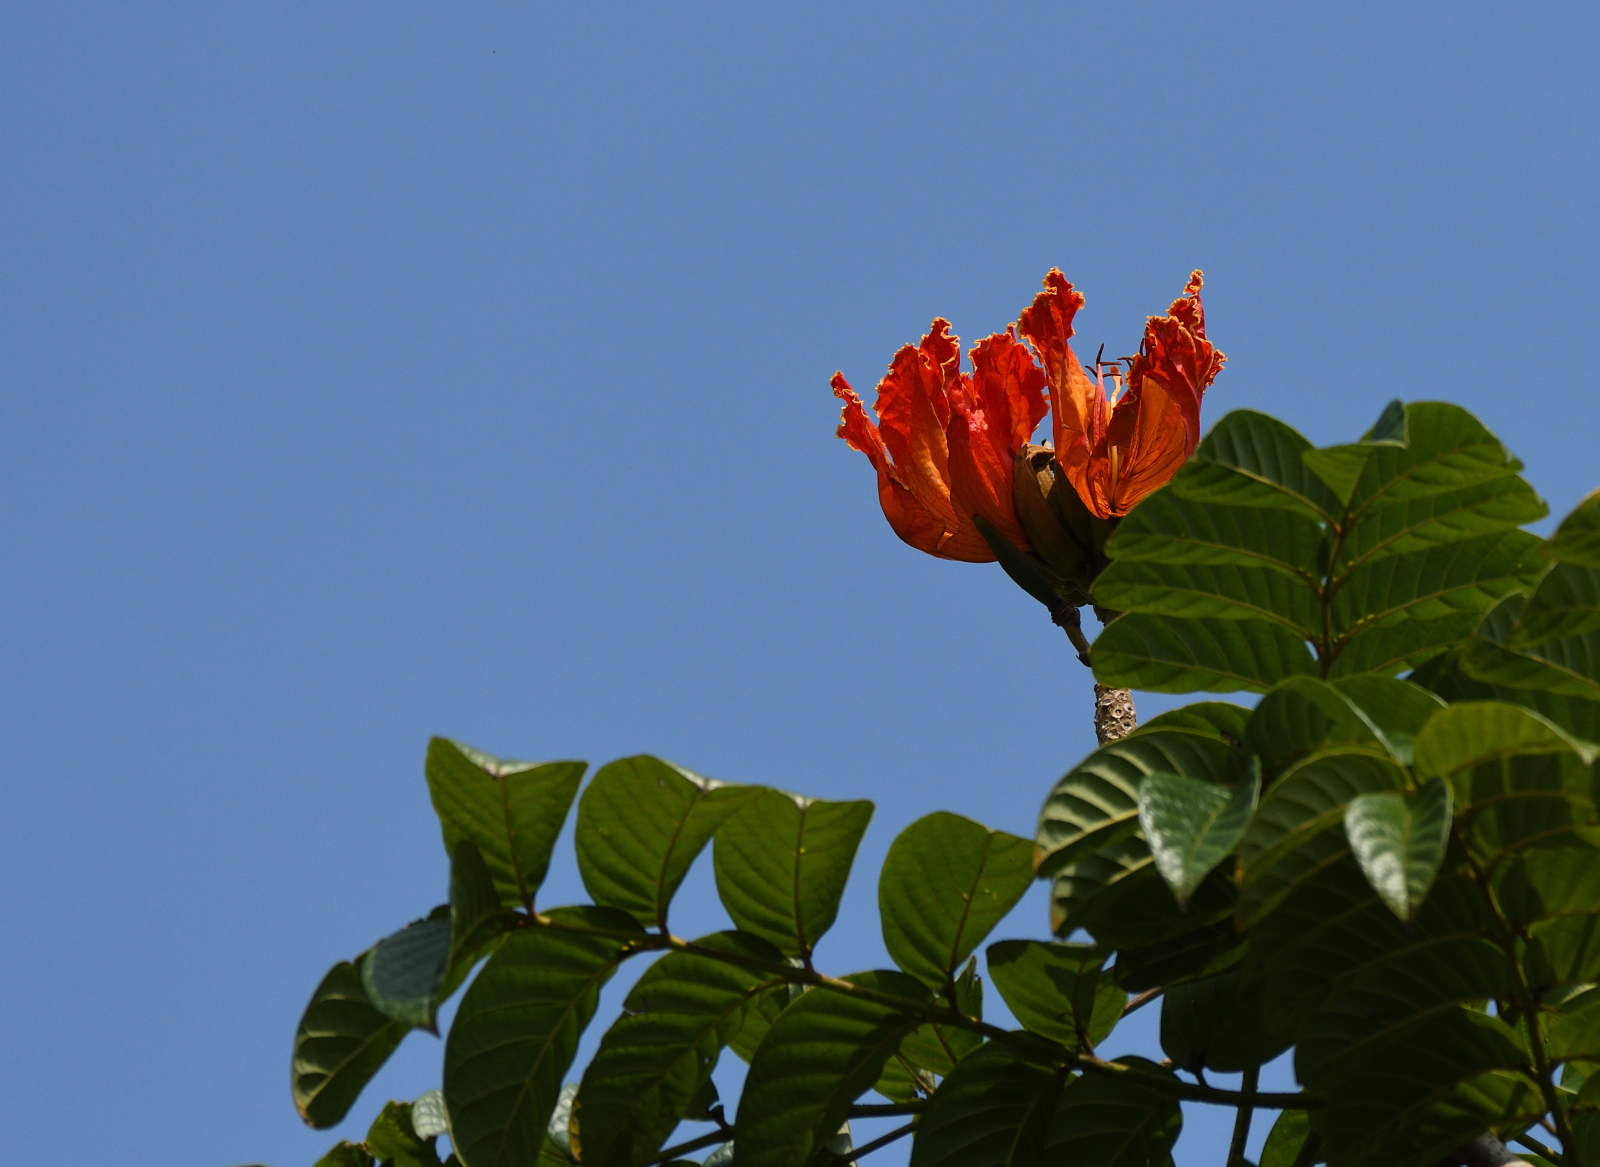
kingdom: Plantae
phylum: Tracheophyta
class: Magnoliopsida
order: Lamiales
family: Bignoniaceae
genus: Spathodea
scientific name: Spathodea campanulata
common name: African tuliptree
